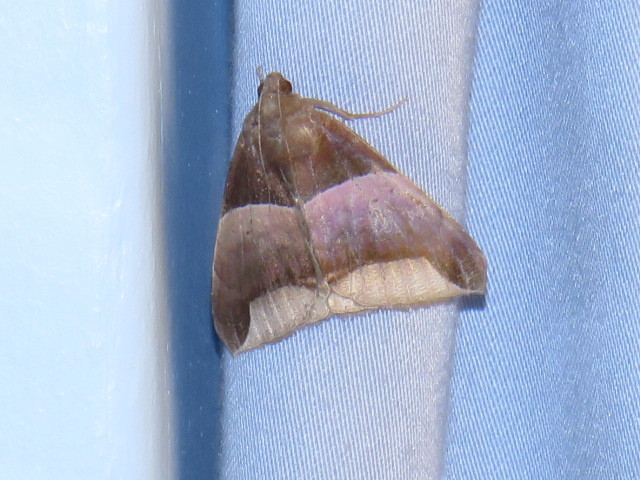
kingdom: Animalia
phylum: Arthropoda
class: Insecta
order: Lepidoptera
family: Erebidae
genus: Achaea
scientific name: Achaea echo
